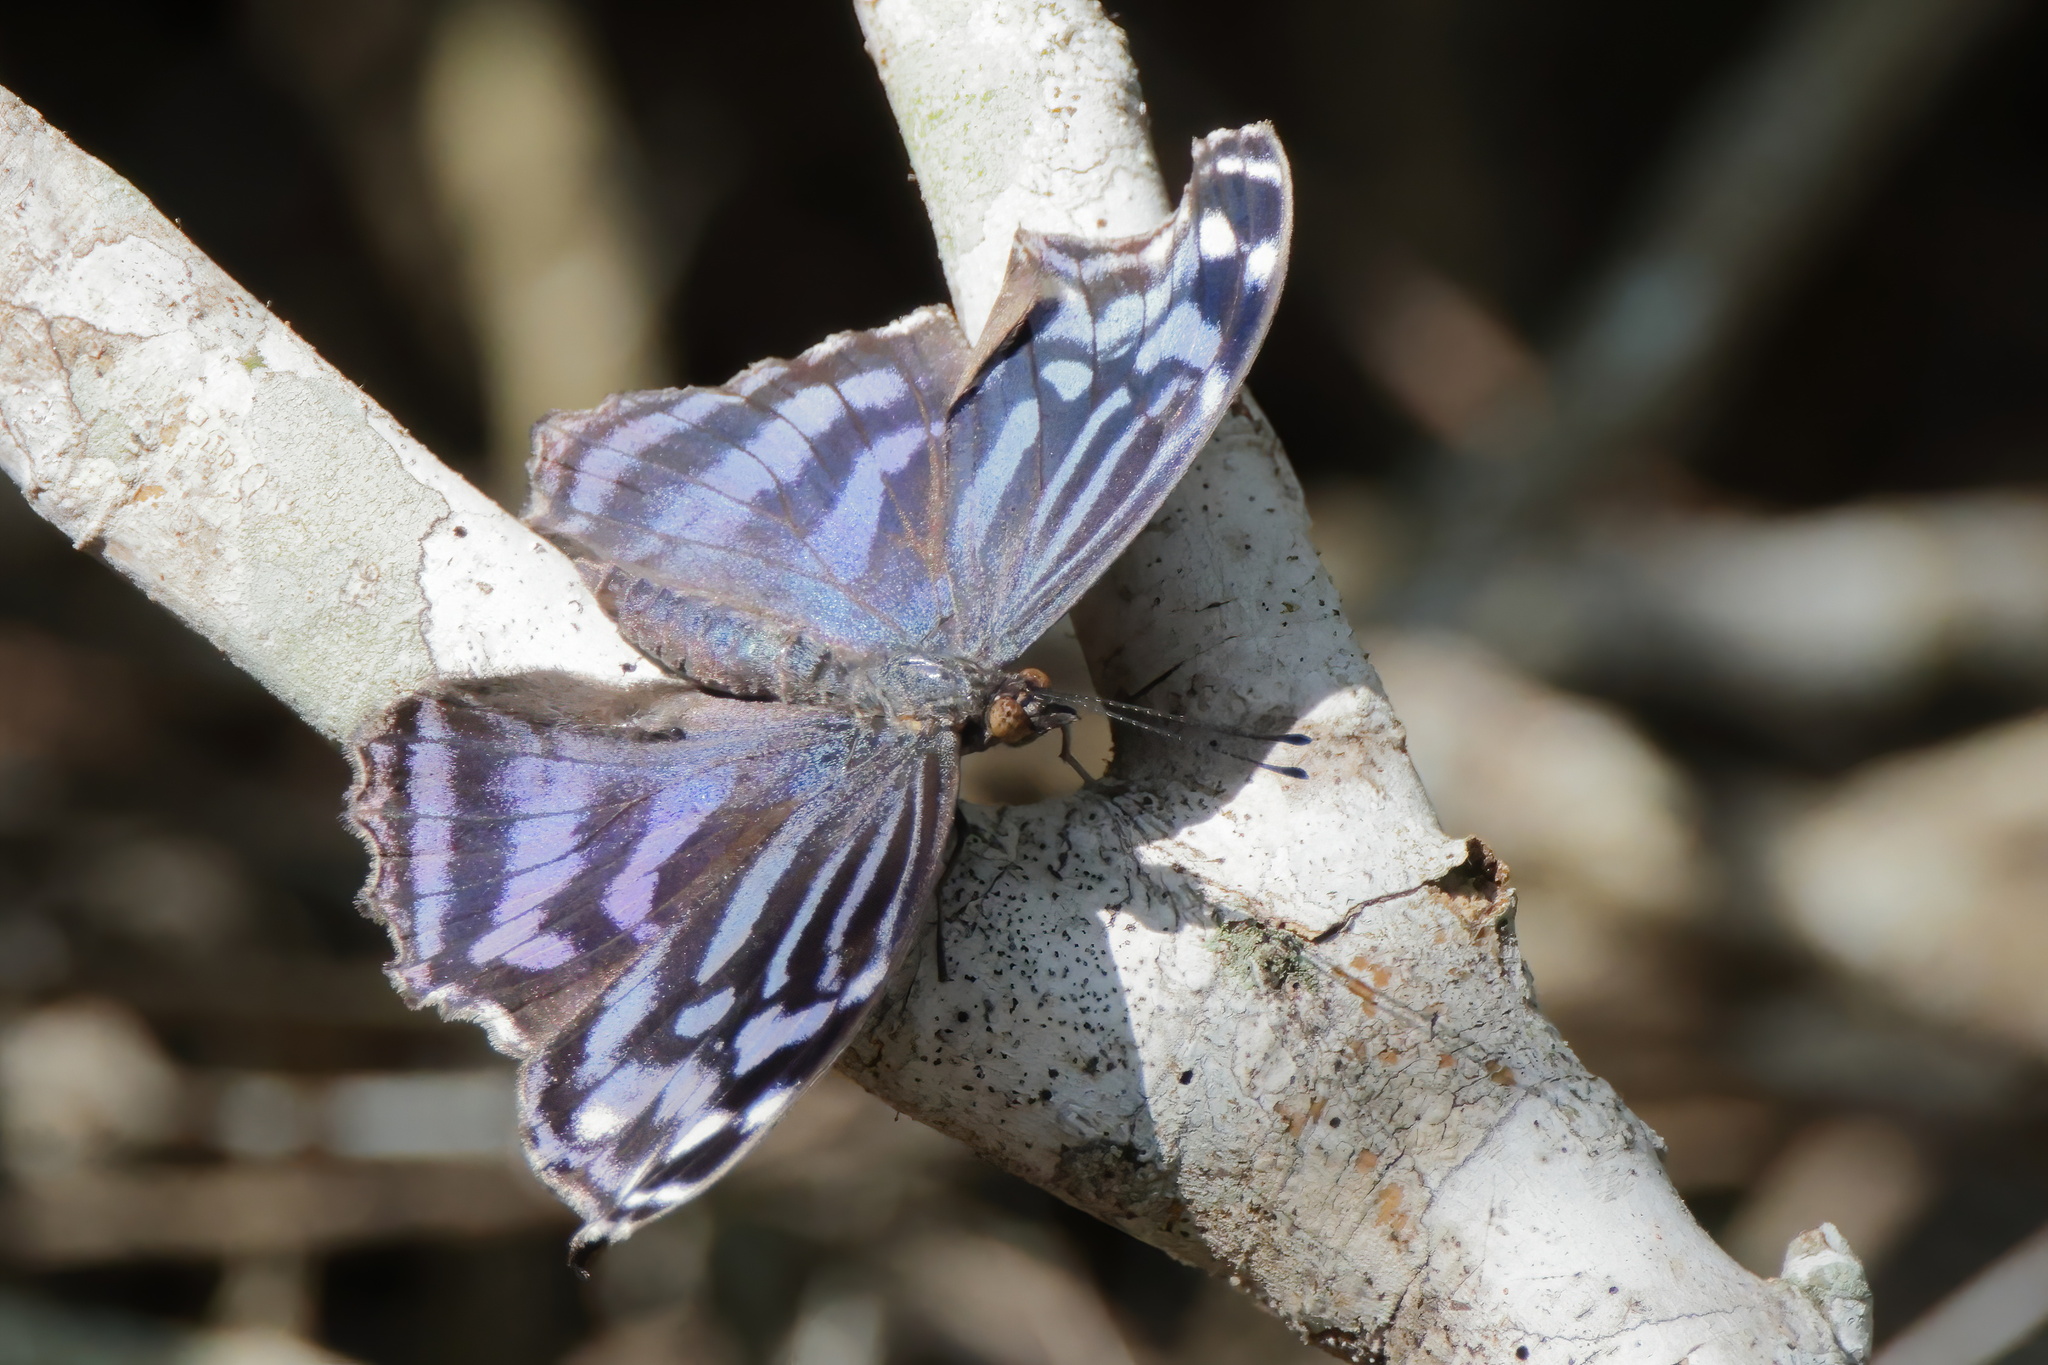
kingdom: Animalia
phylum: Arthropoda
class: Insecta
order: Lepidoptera
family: Nymphalidae
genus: Myscelia
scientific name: Myscelia ethusa
